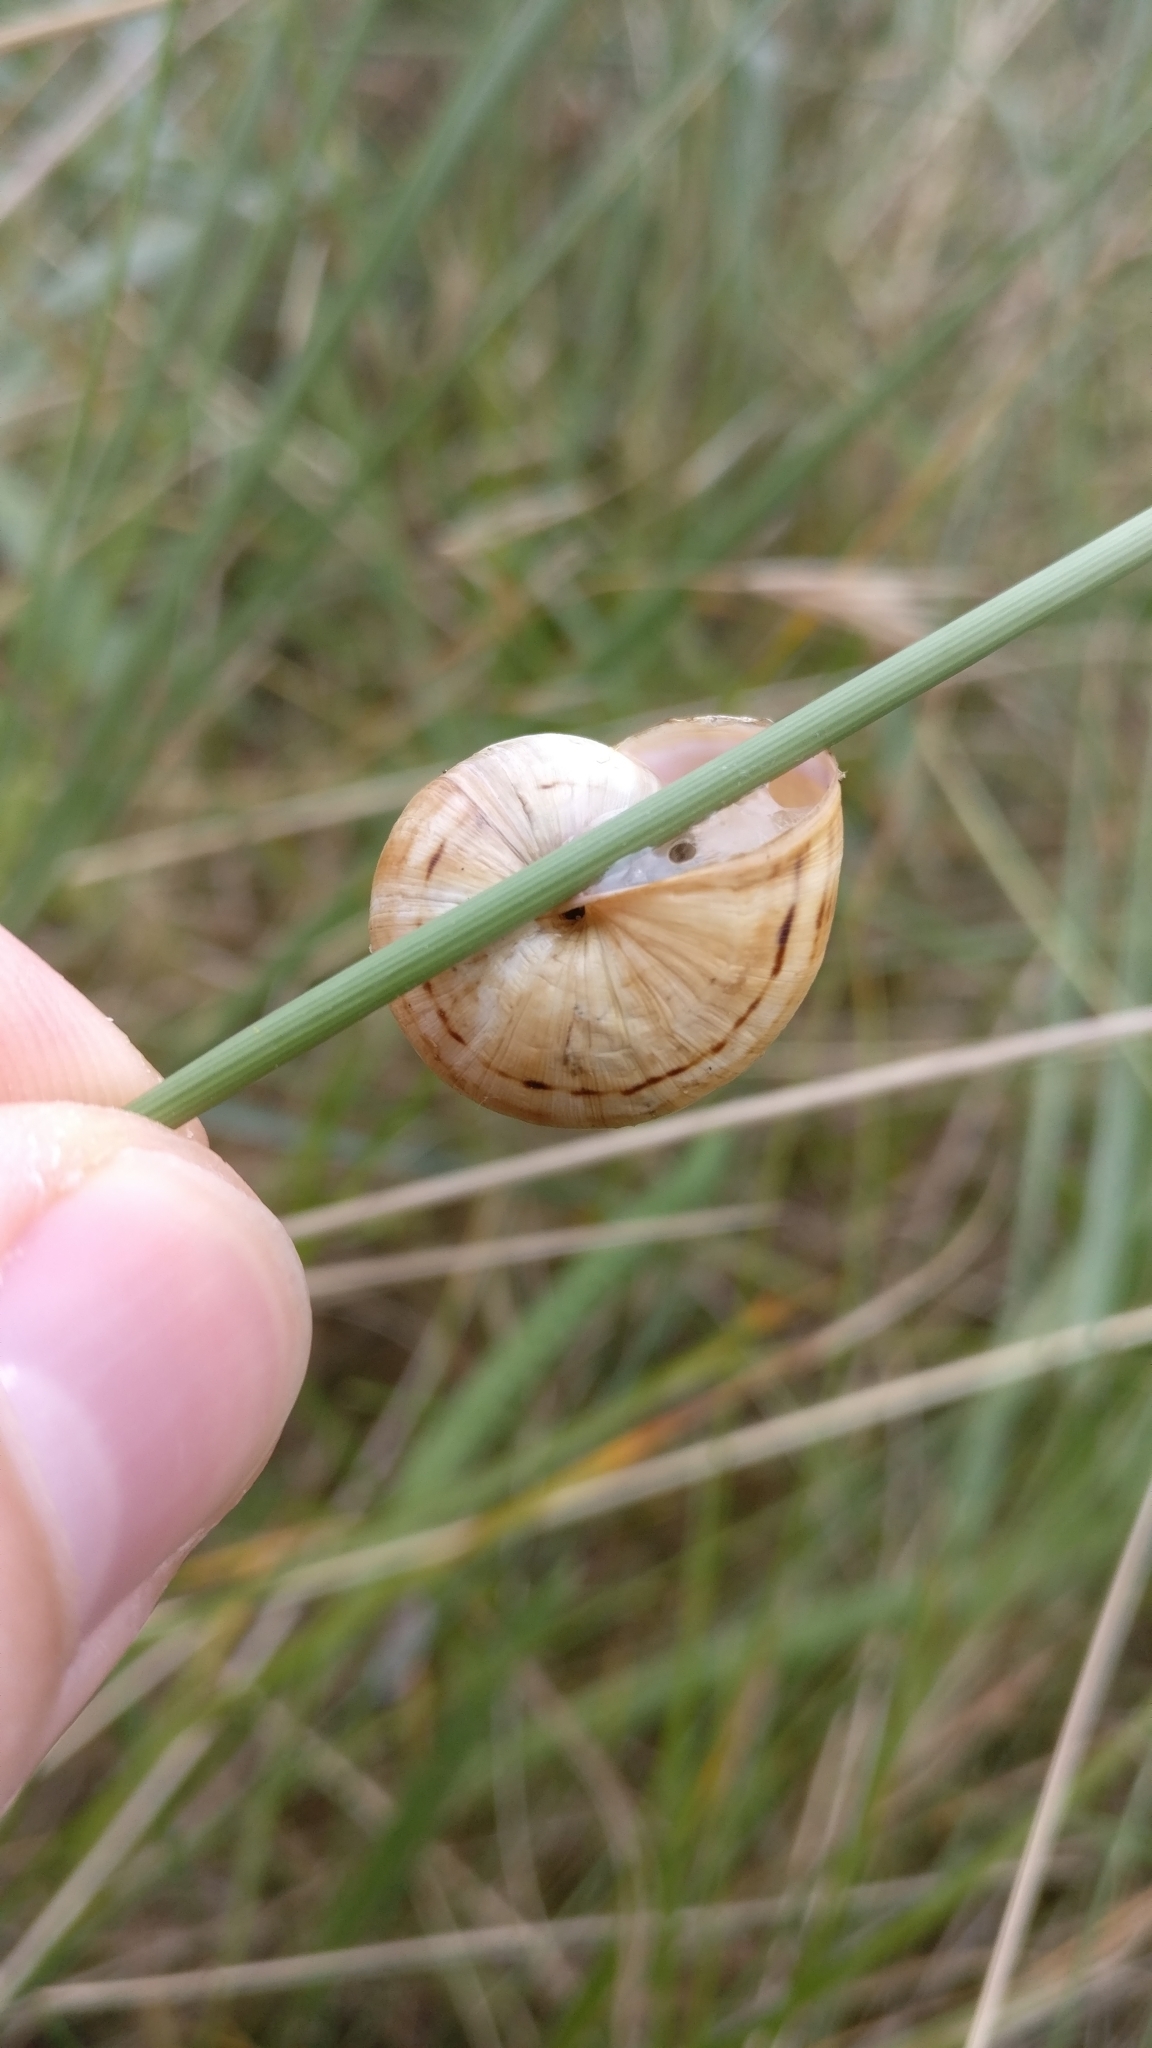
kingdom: Animalia
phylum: Mollusca
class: Gastropoda
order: Stylommatophora
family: Helicidae
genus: Theba
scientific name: Theba pisana
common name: White snail
